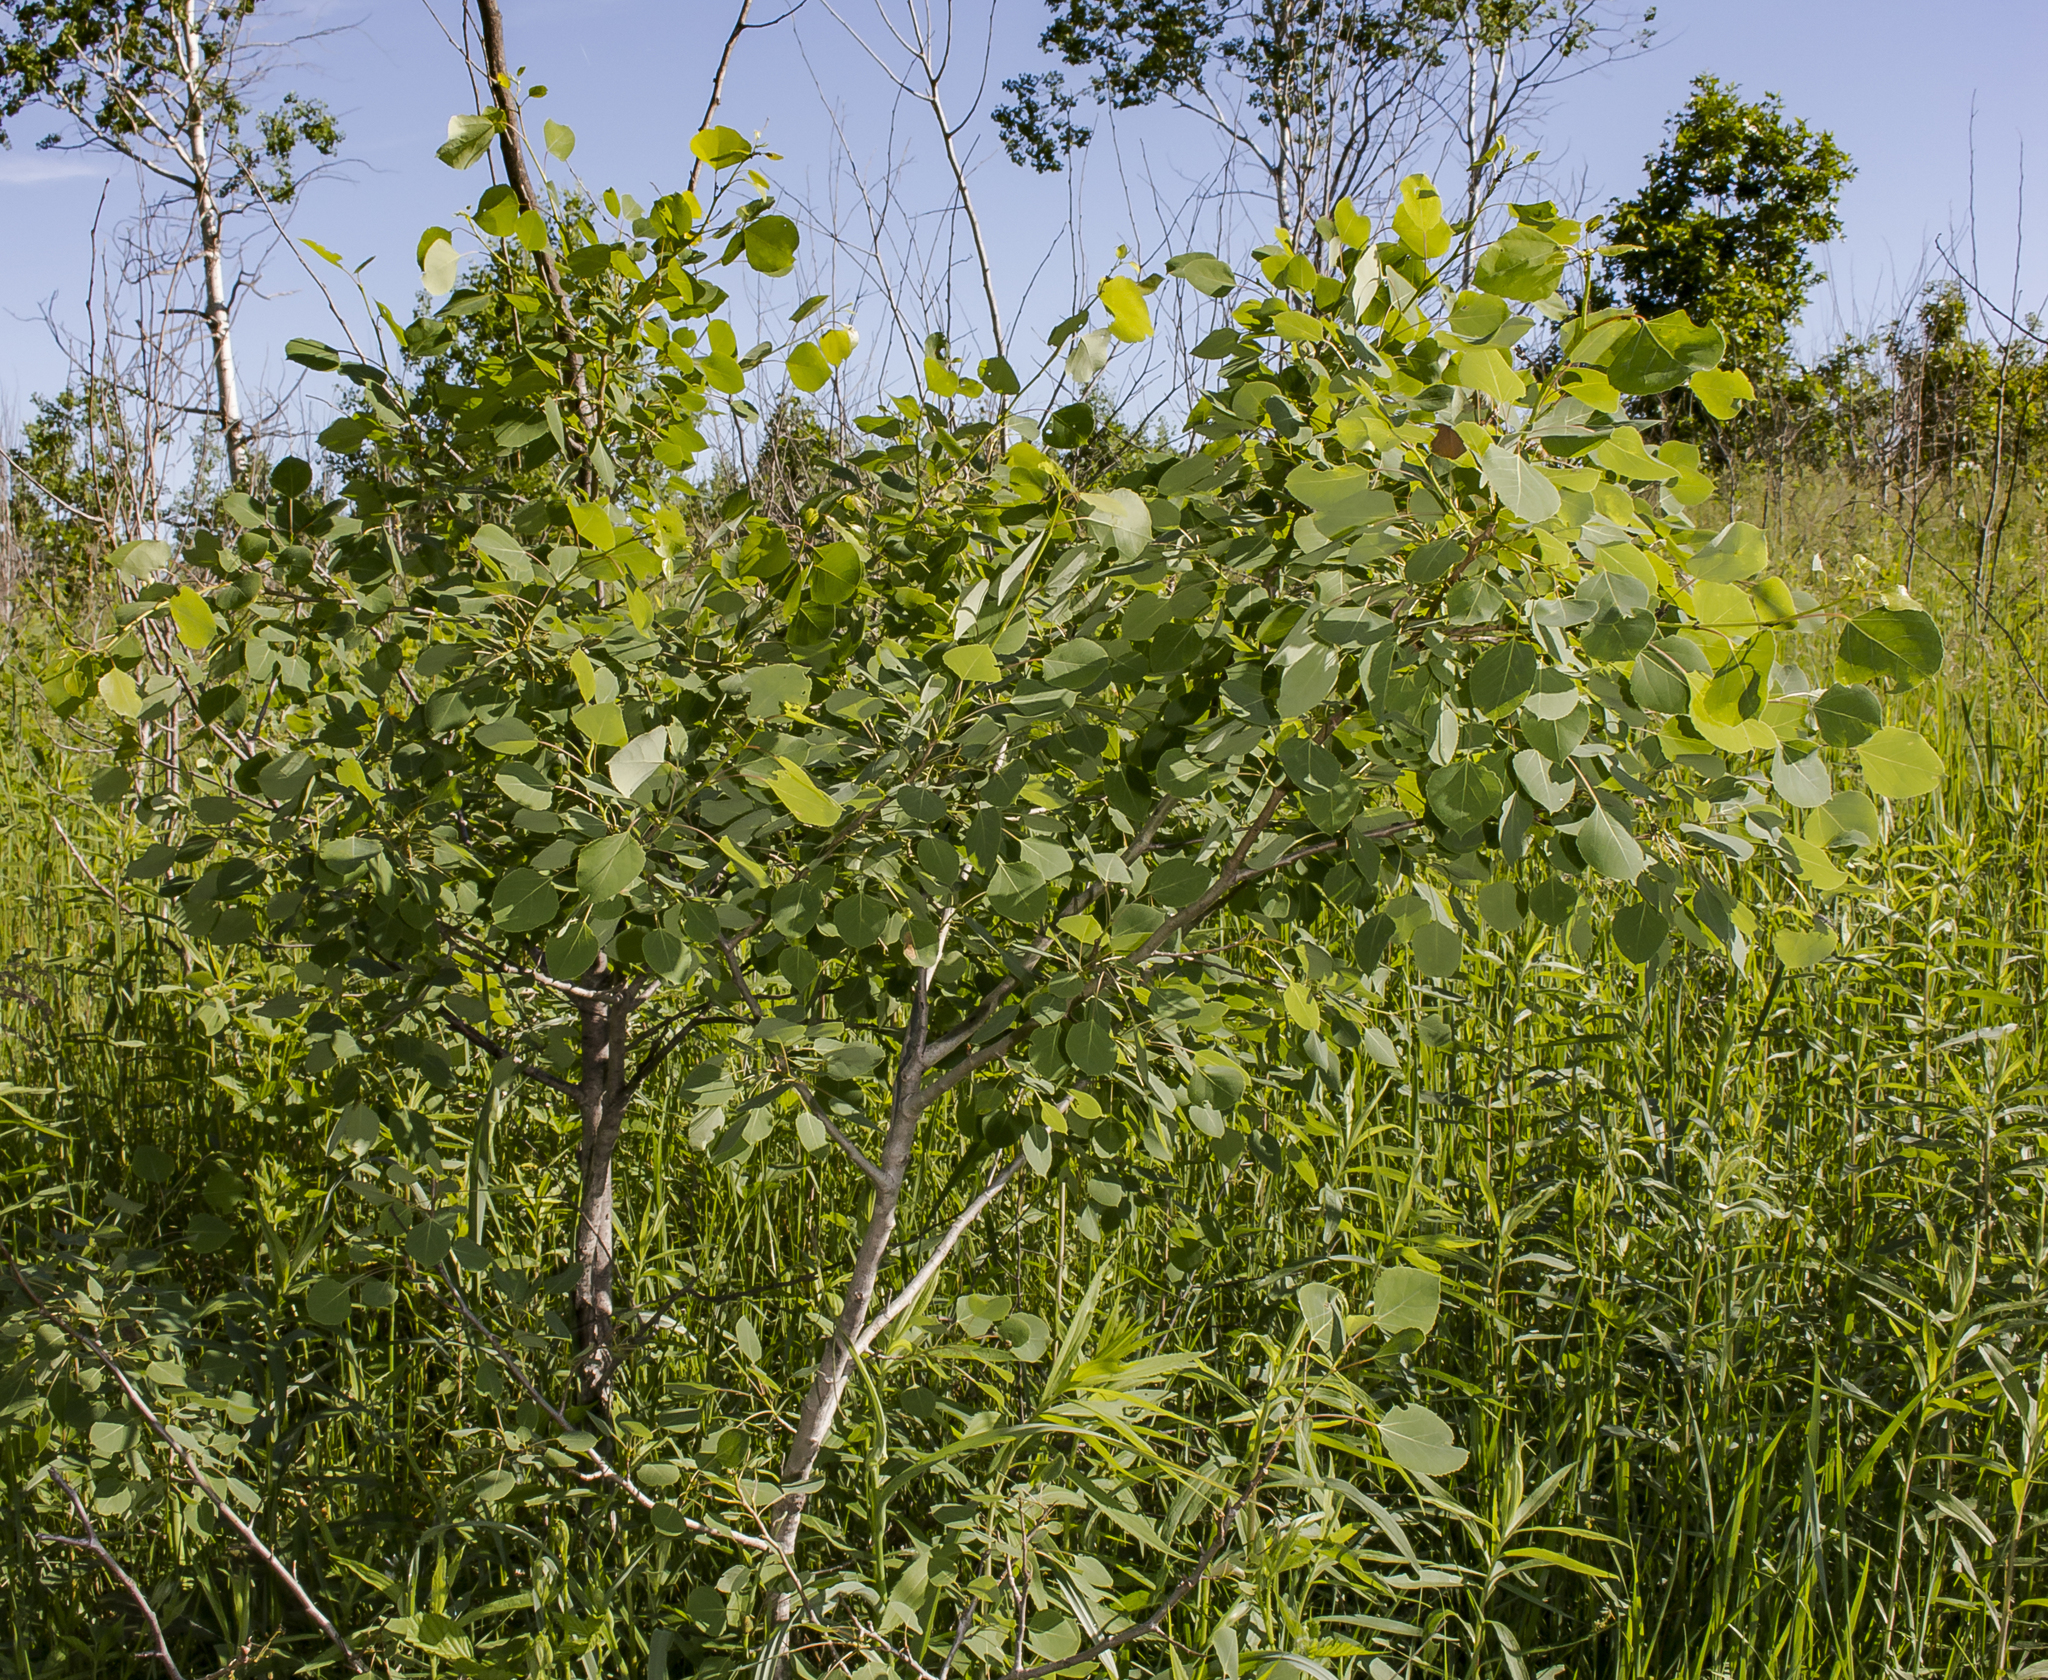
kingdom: Plantae
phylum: Tracheophyta
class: Magnoliopsida
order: Malpighiales
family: Salicaceae
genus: Populus
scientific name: Populus tremuloides
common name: Quaking aspen
